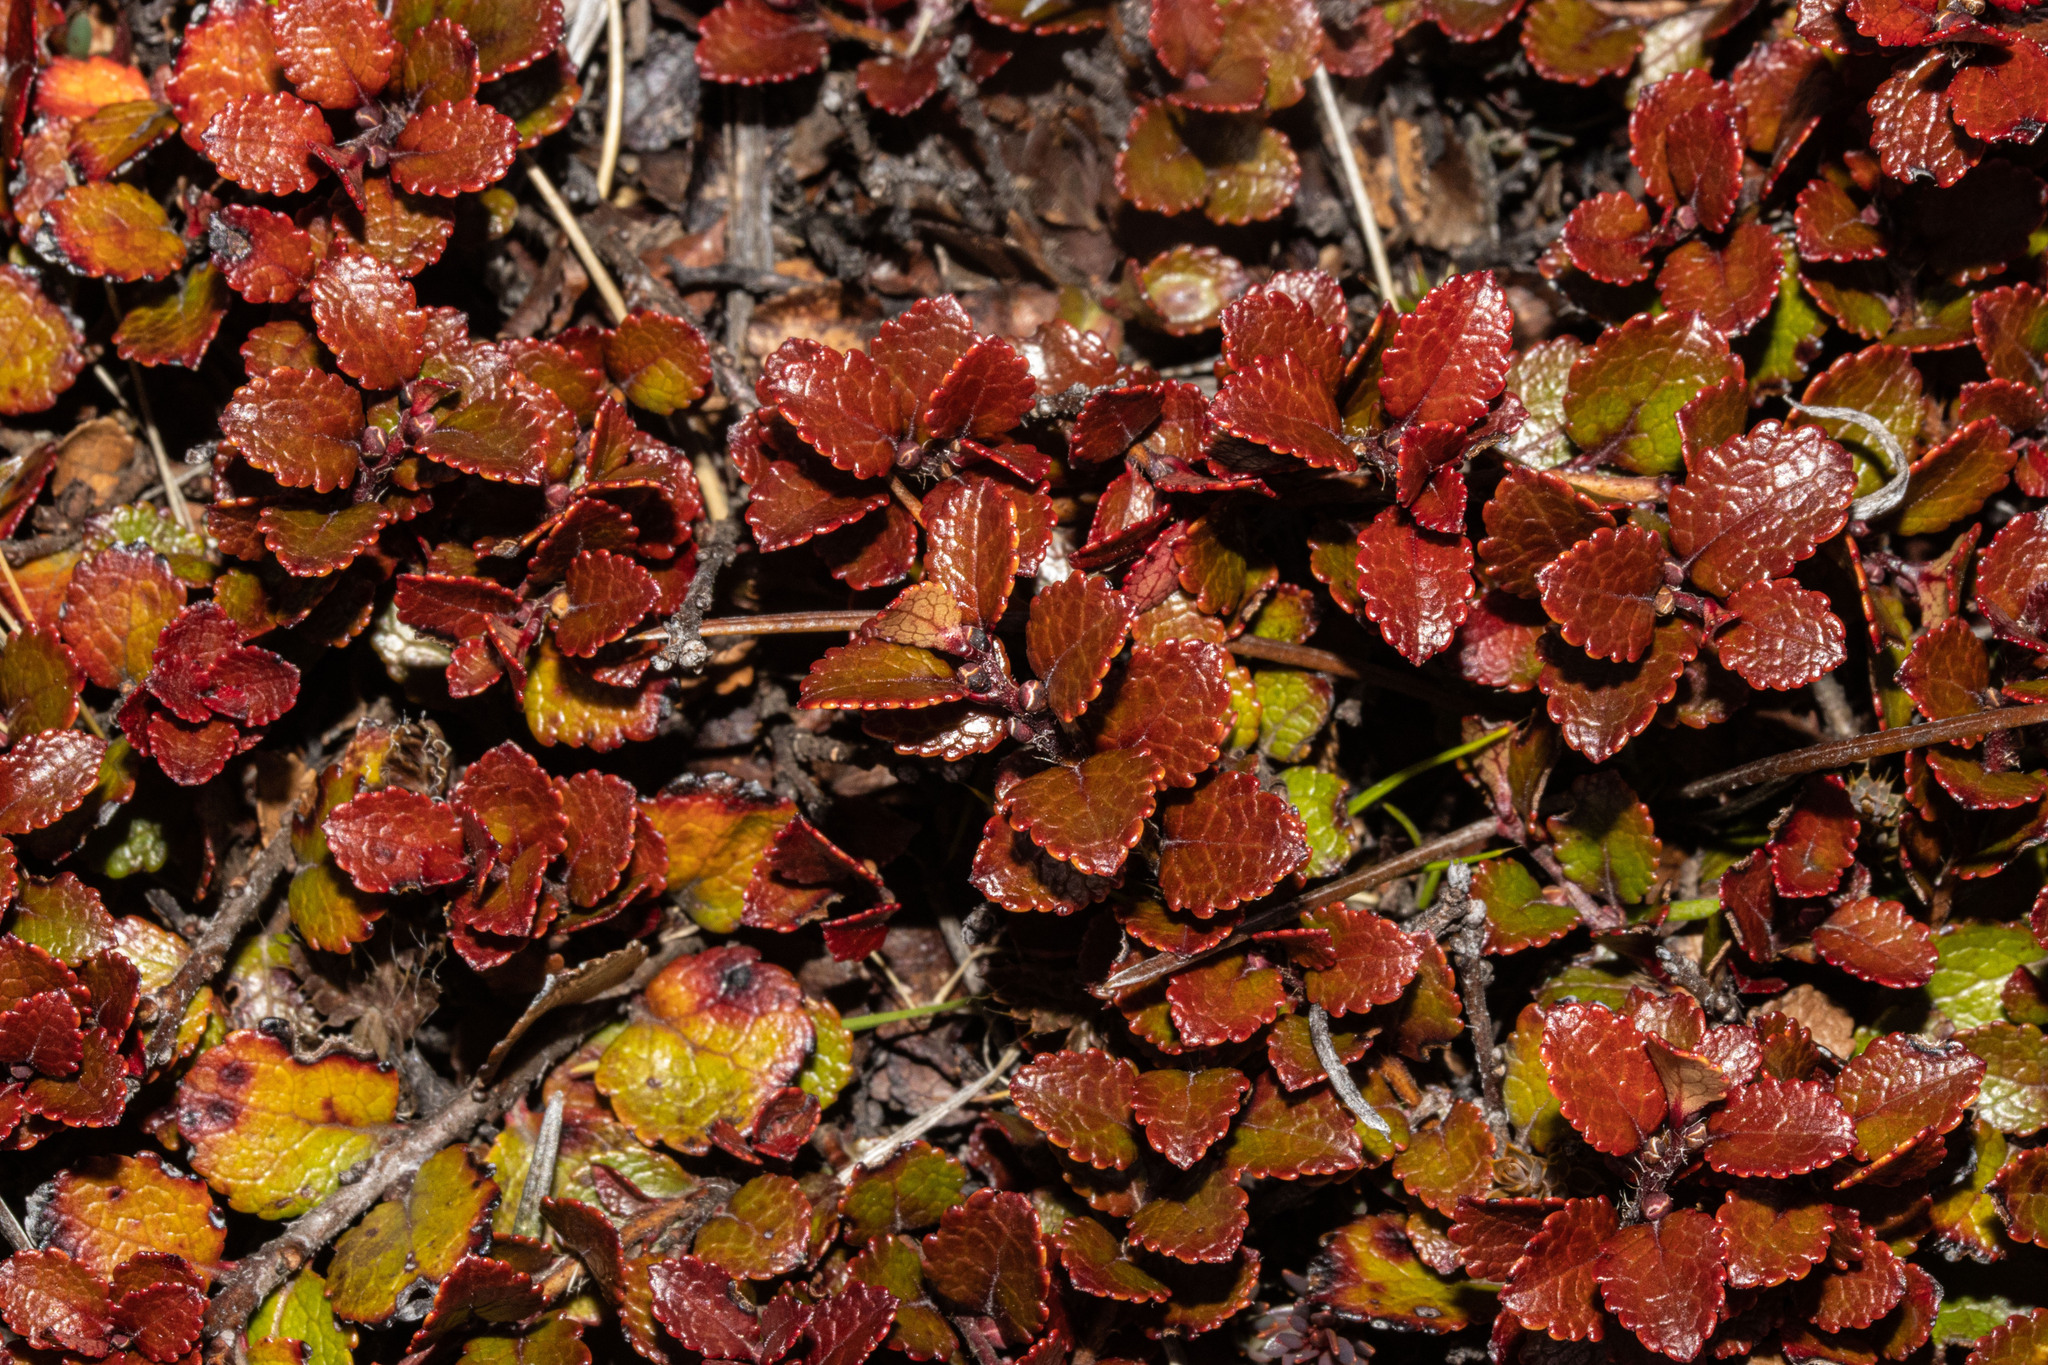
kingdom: Plantae
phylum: Tracheophyta
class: Magnoliopsida
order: Ericales
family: Ericaceae
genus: Gaultheria
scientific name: Gaultheria depressa
